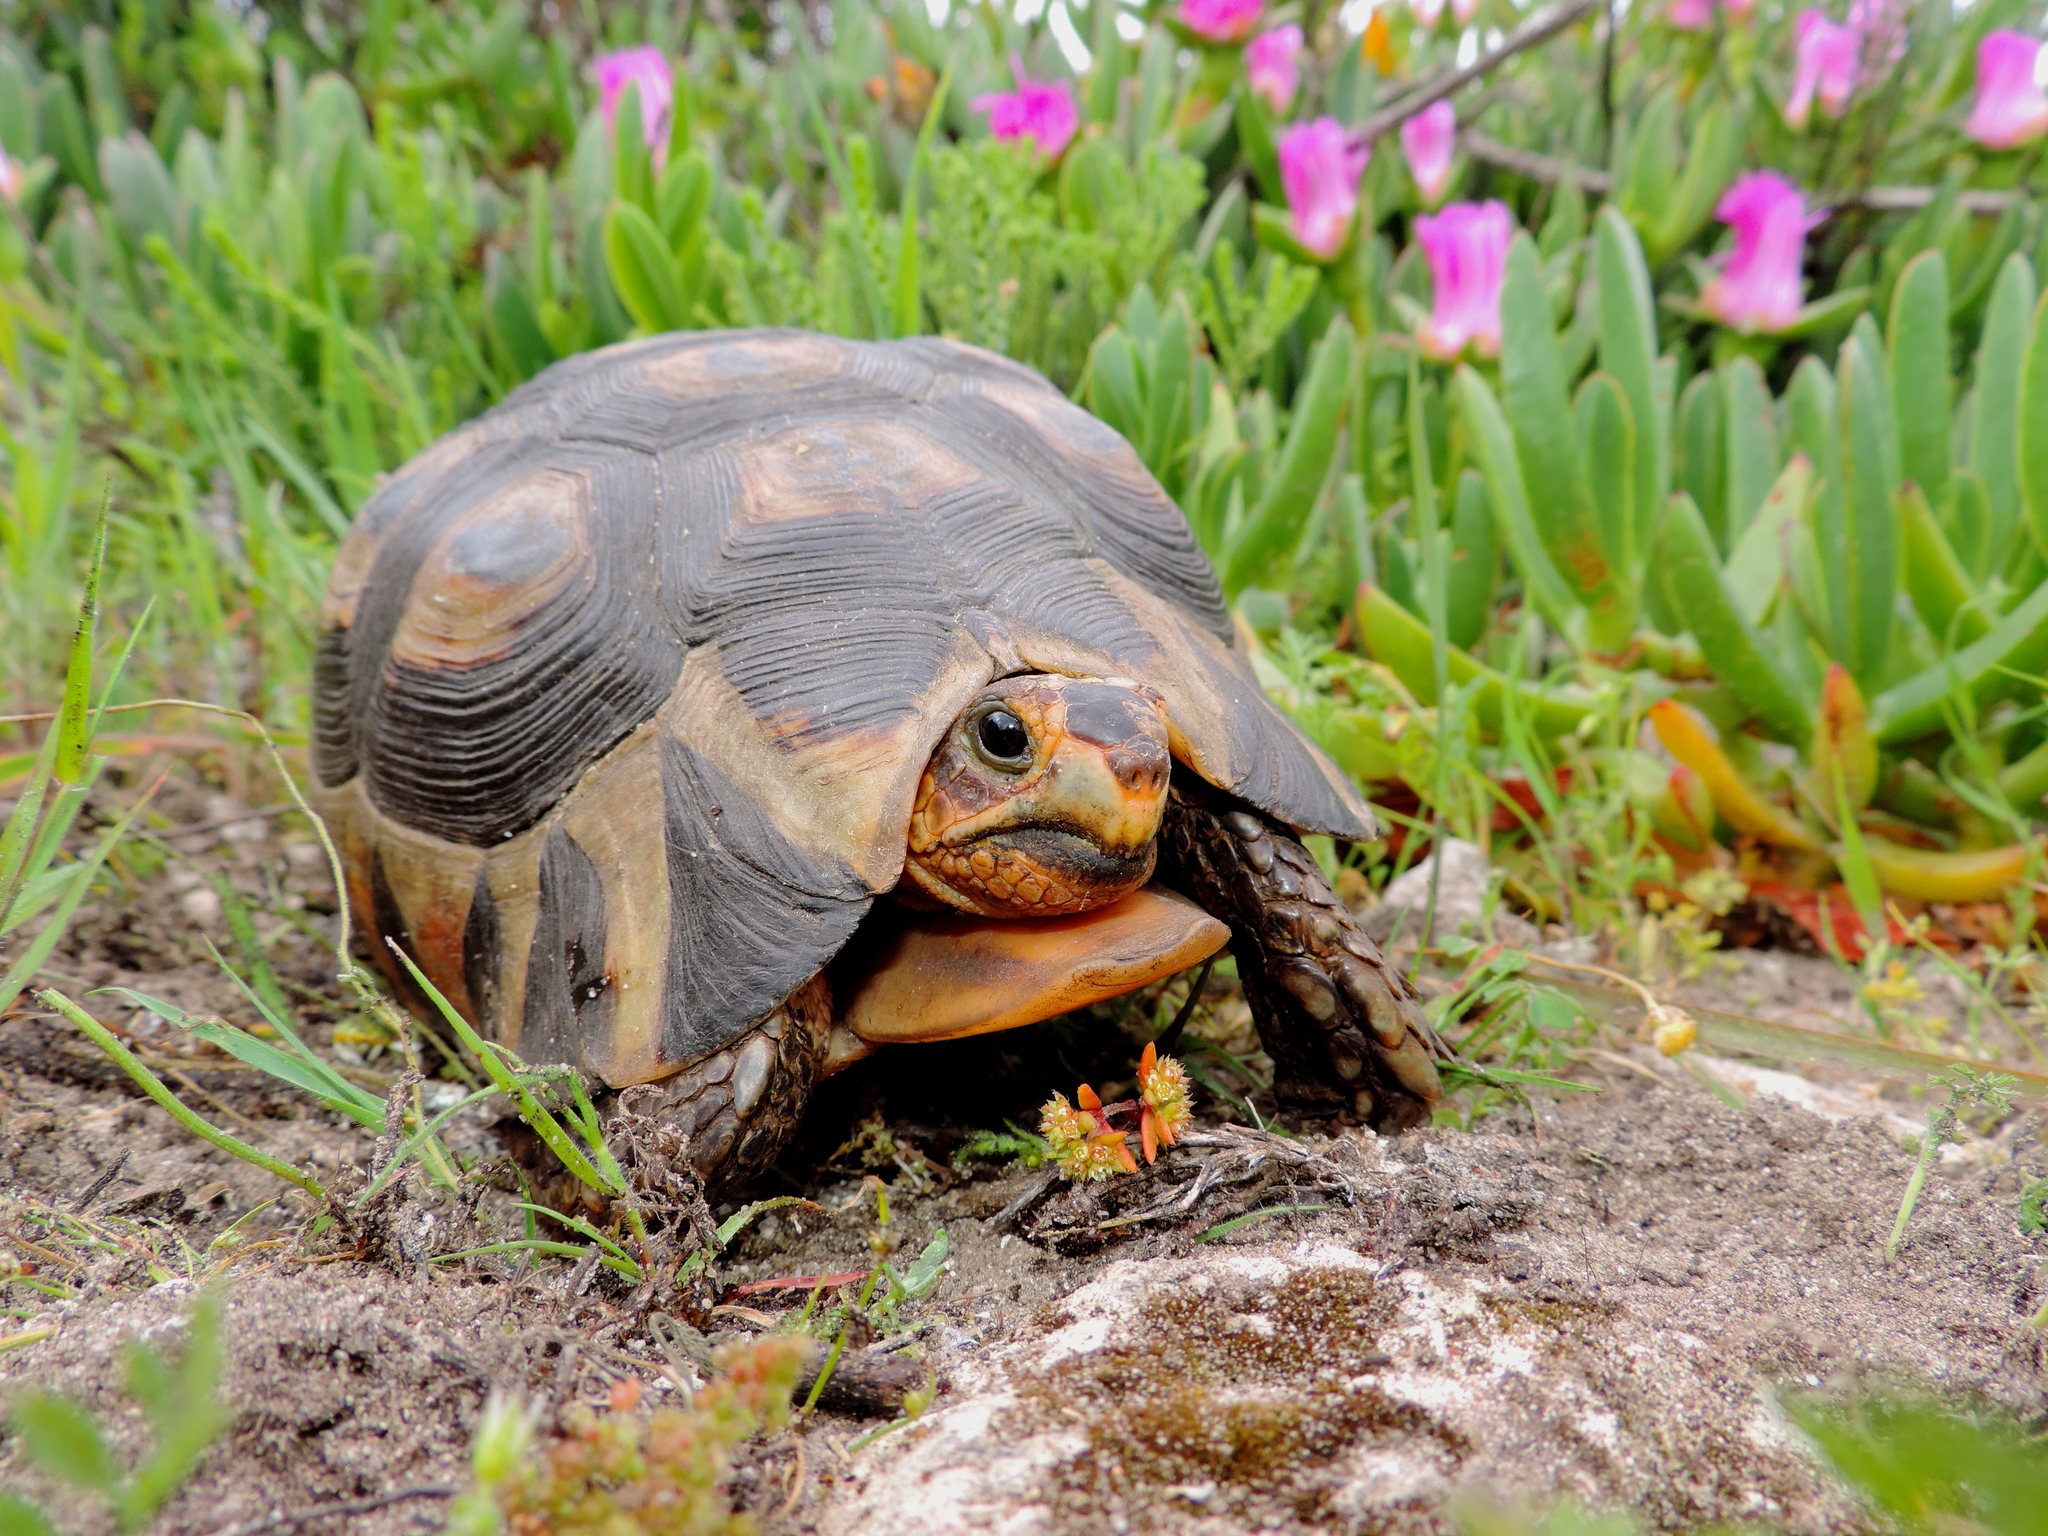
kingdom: Animalia
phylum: Chordata
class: Testudines
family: Testudinidae
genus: Chersina
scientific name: Chersina angulata
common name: South african bowsprit tortoise
